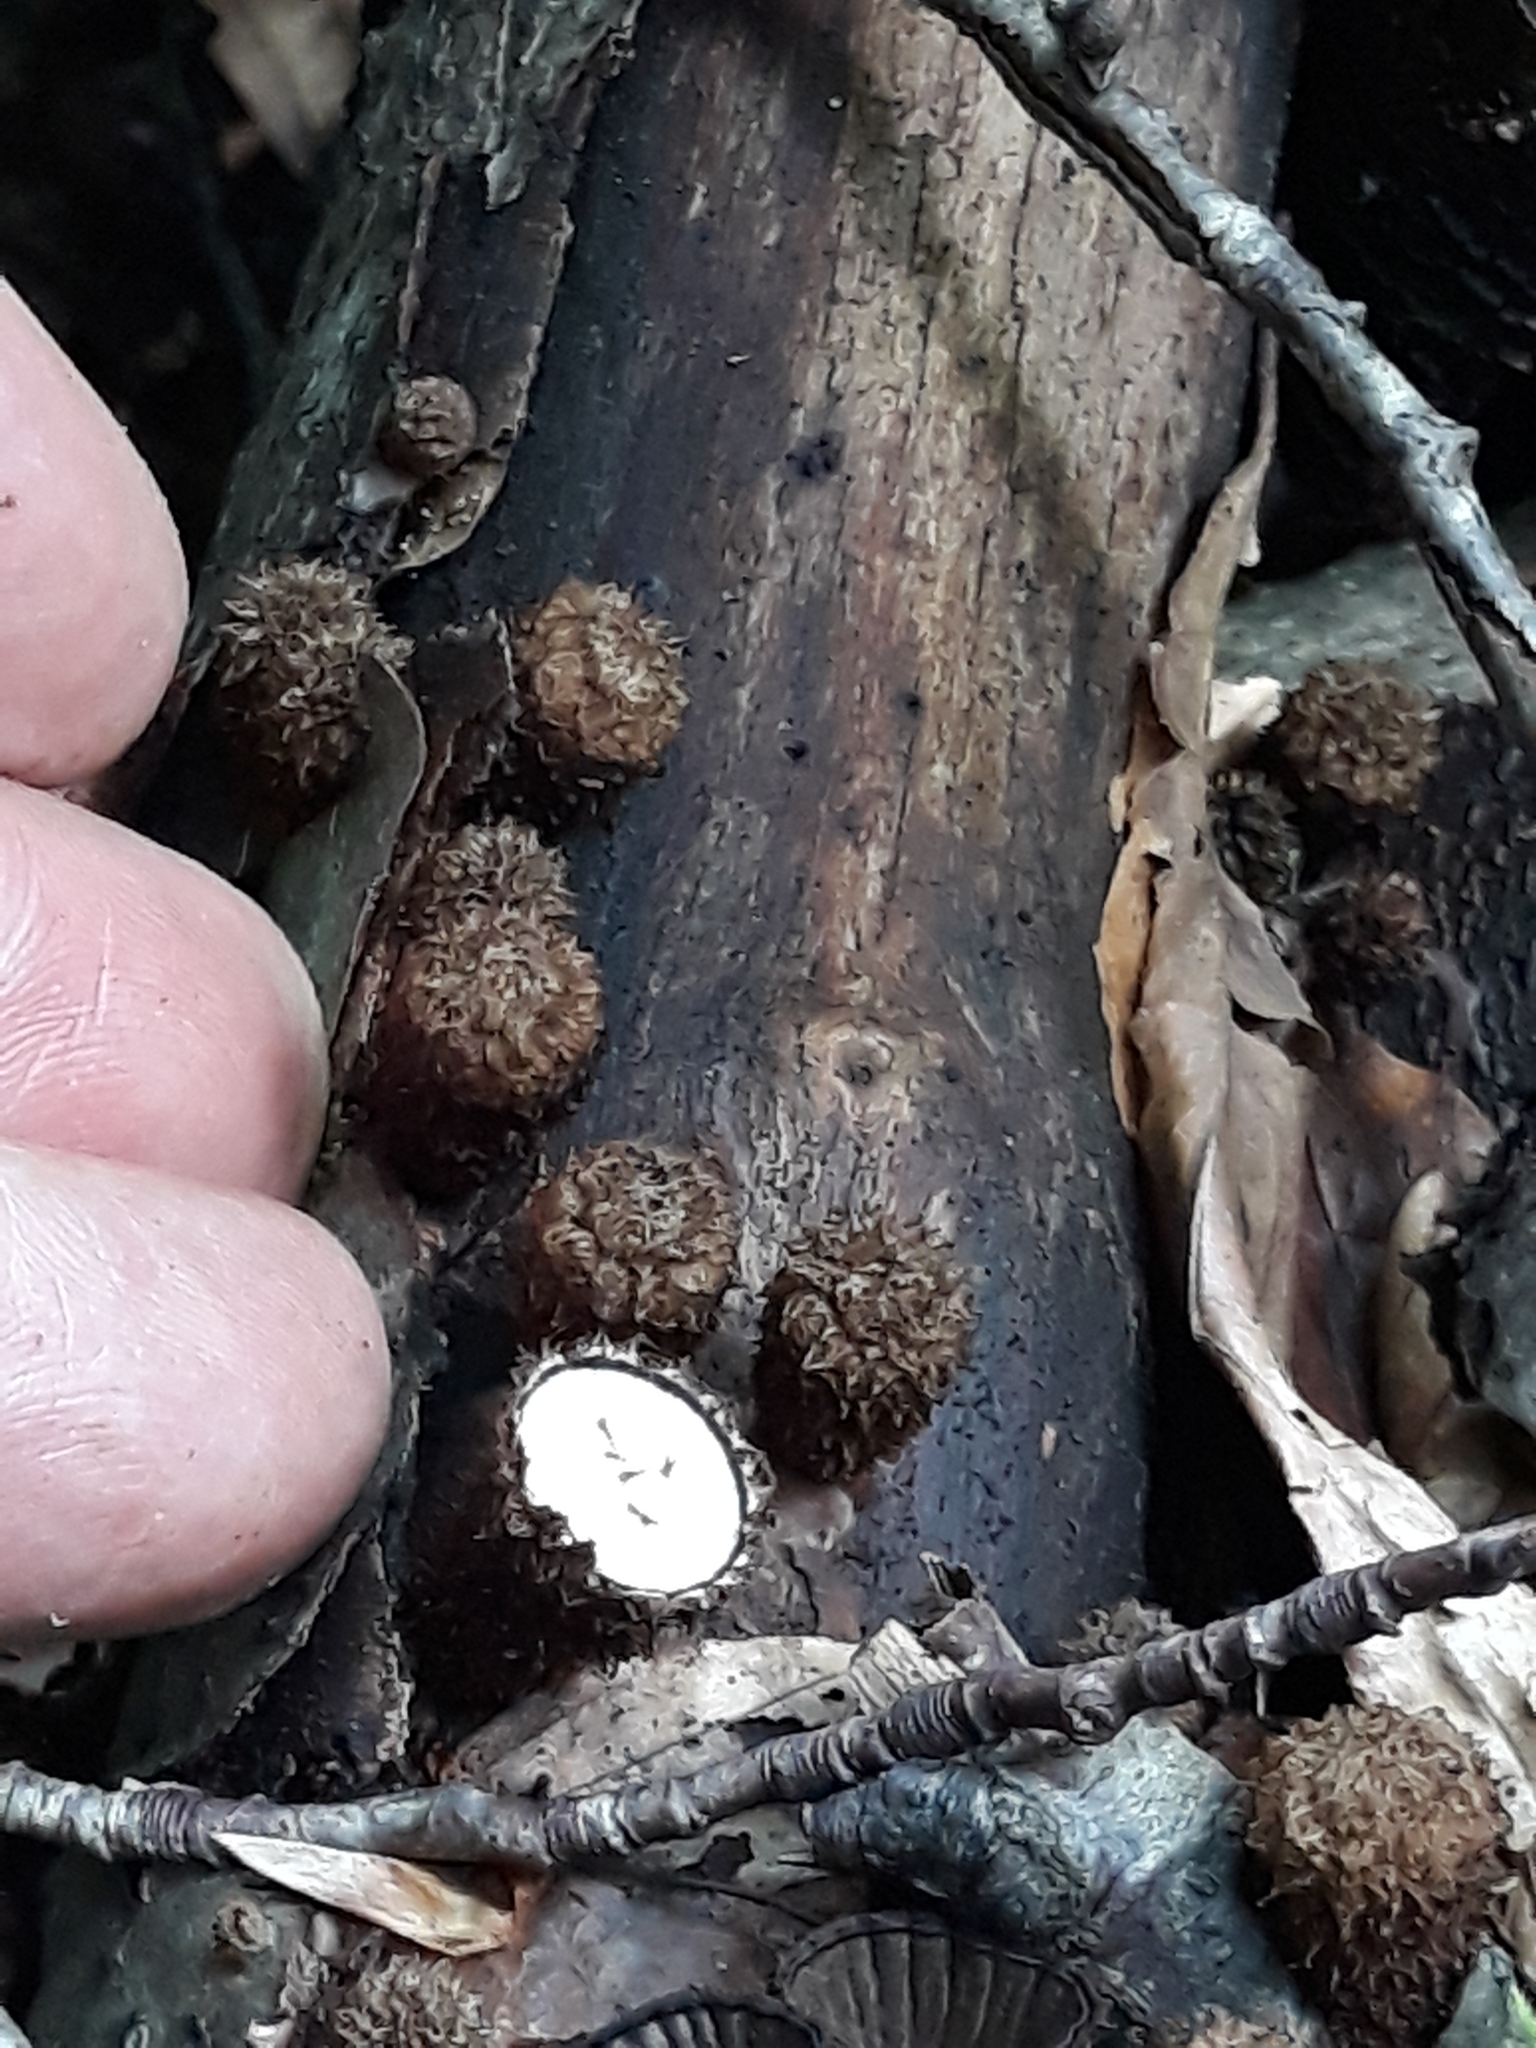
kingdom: Fungi
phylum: Basidiomycota
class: Agaricomycetes
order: Agaricales
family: Agaricaceae
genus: Cyathus
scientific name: Cyathus striatus
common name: Fluted bird's nest
